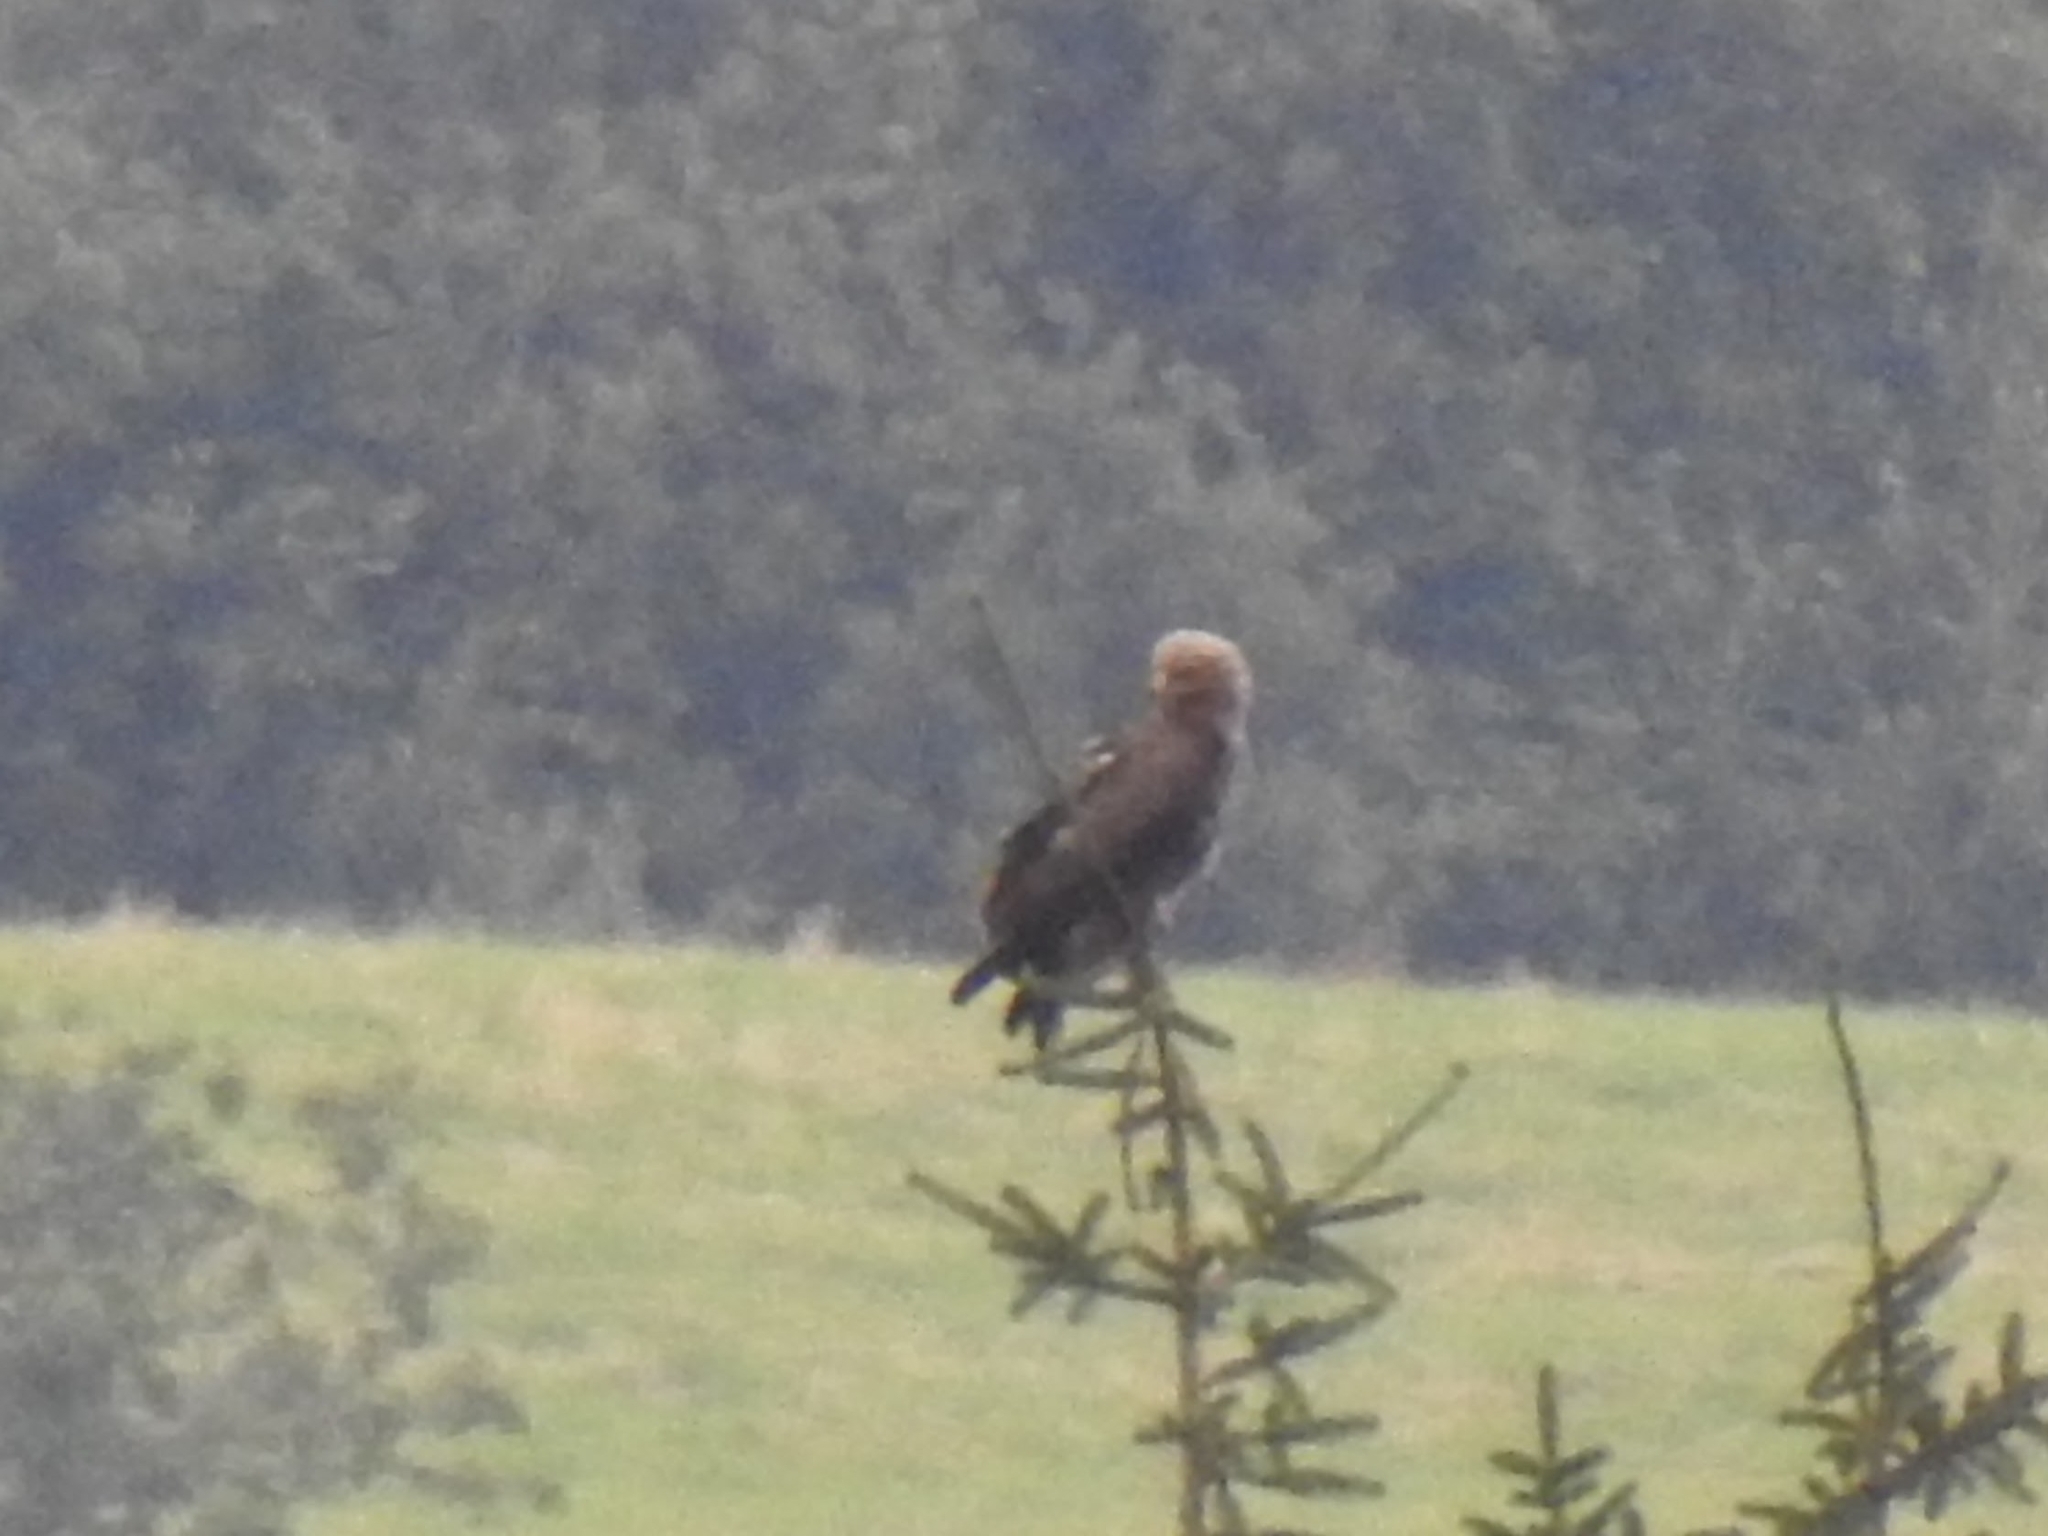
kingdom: Animalia
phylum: Chordata
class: Aves
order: Accipitriformes
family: Accipitridae
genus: Aquila
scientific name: Aquila pomarina
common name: Lesser spotted eagle
